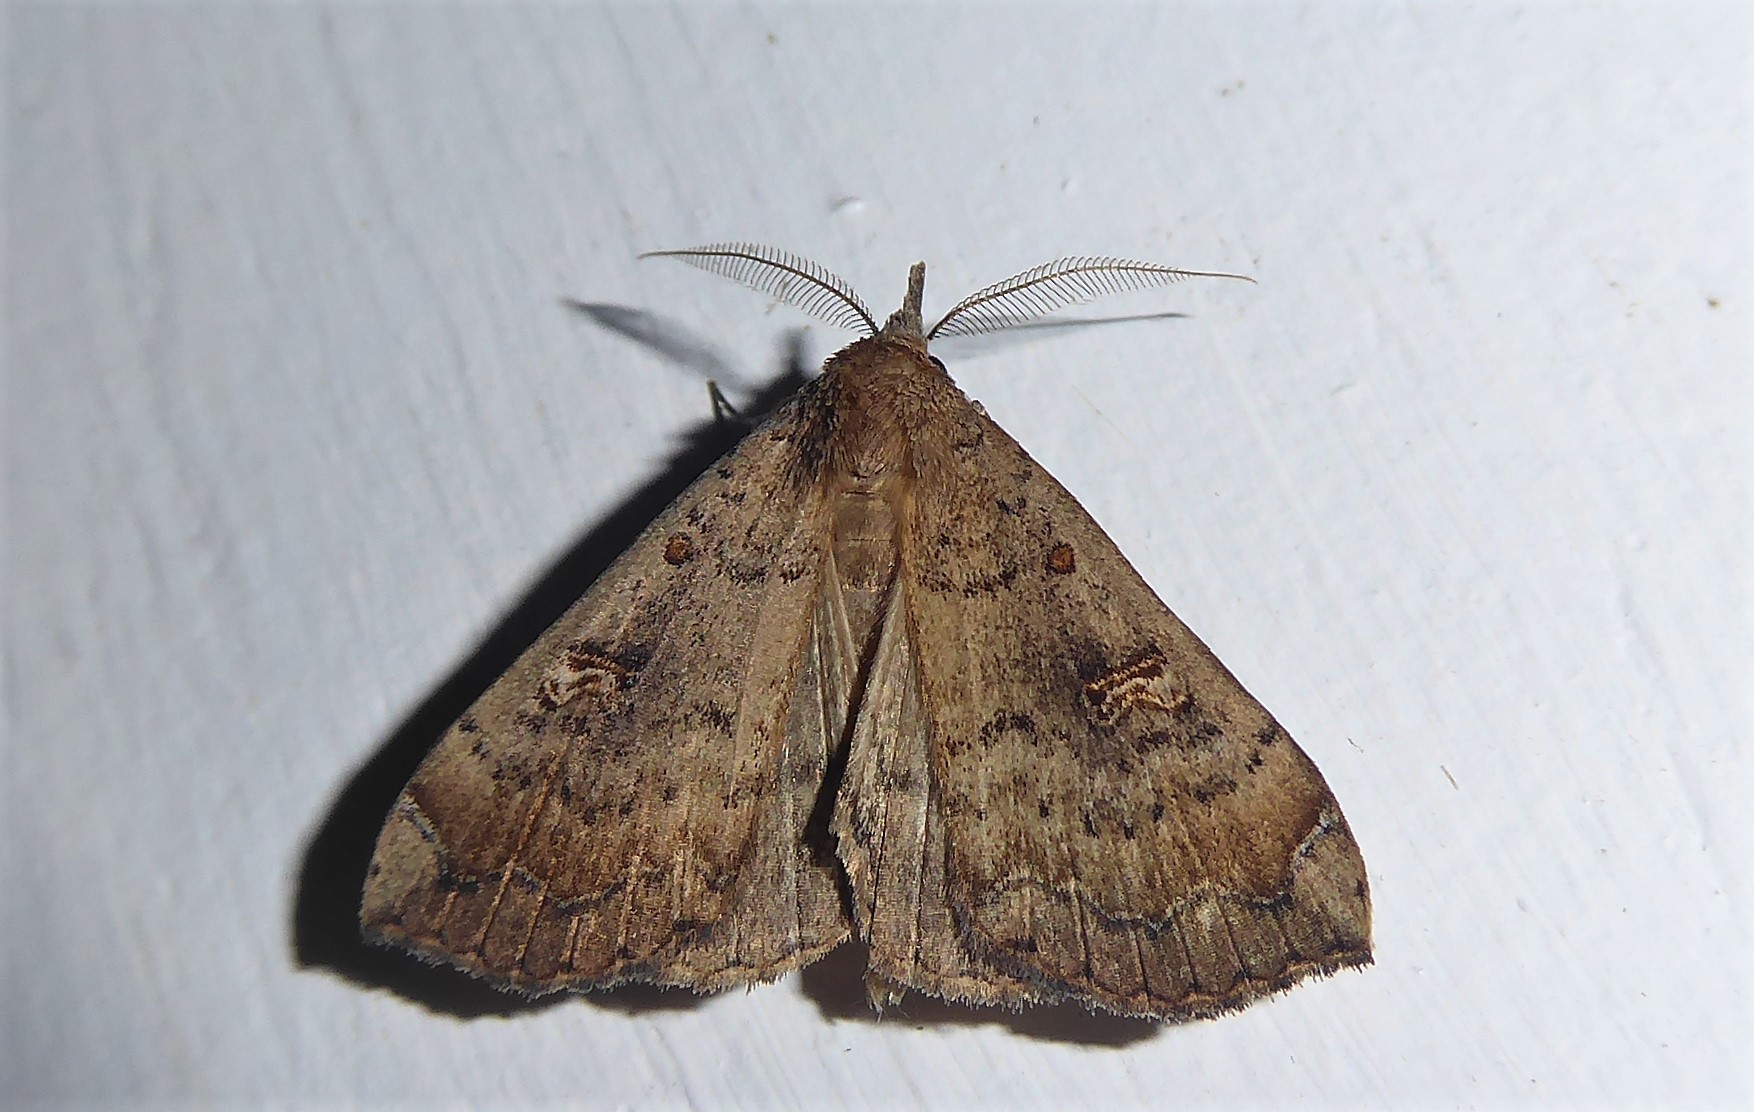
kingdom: Animalia
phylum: Arthropoda
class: Insecta
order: Lepidoptera
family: Erebidae
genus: Rhapsa
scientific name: Rhapsa scotosialis
